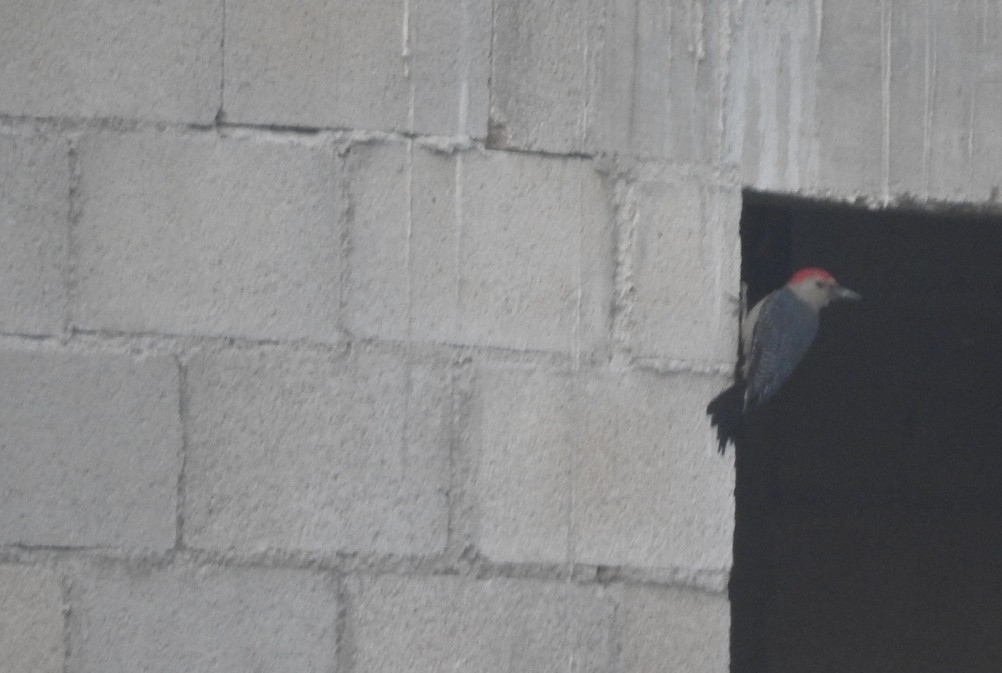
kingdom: Animalia
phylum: Chordata
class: Aves
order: Piciformes
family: Picidae
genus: Melanerpes
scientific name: Melanerpes aurifrons
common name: Golden-fronted woodpecker
